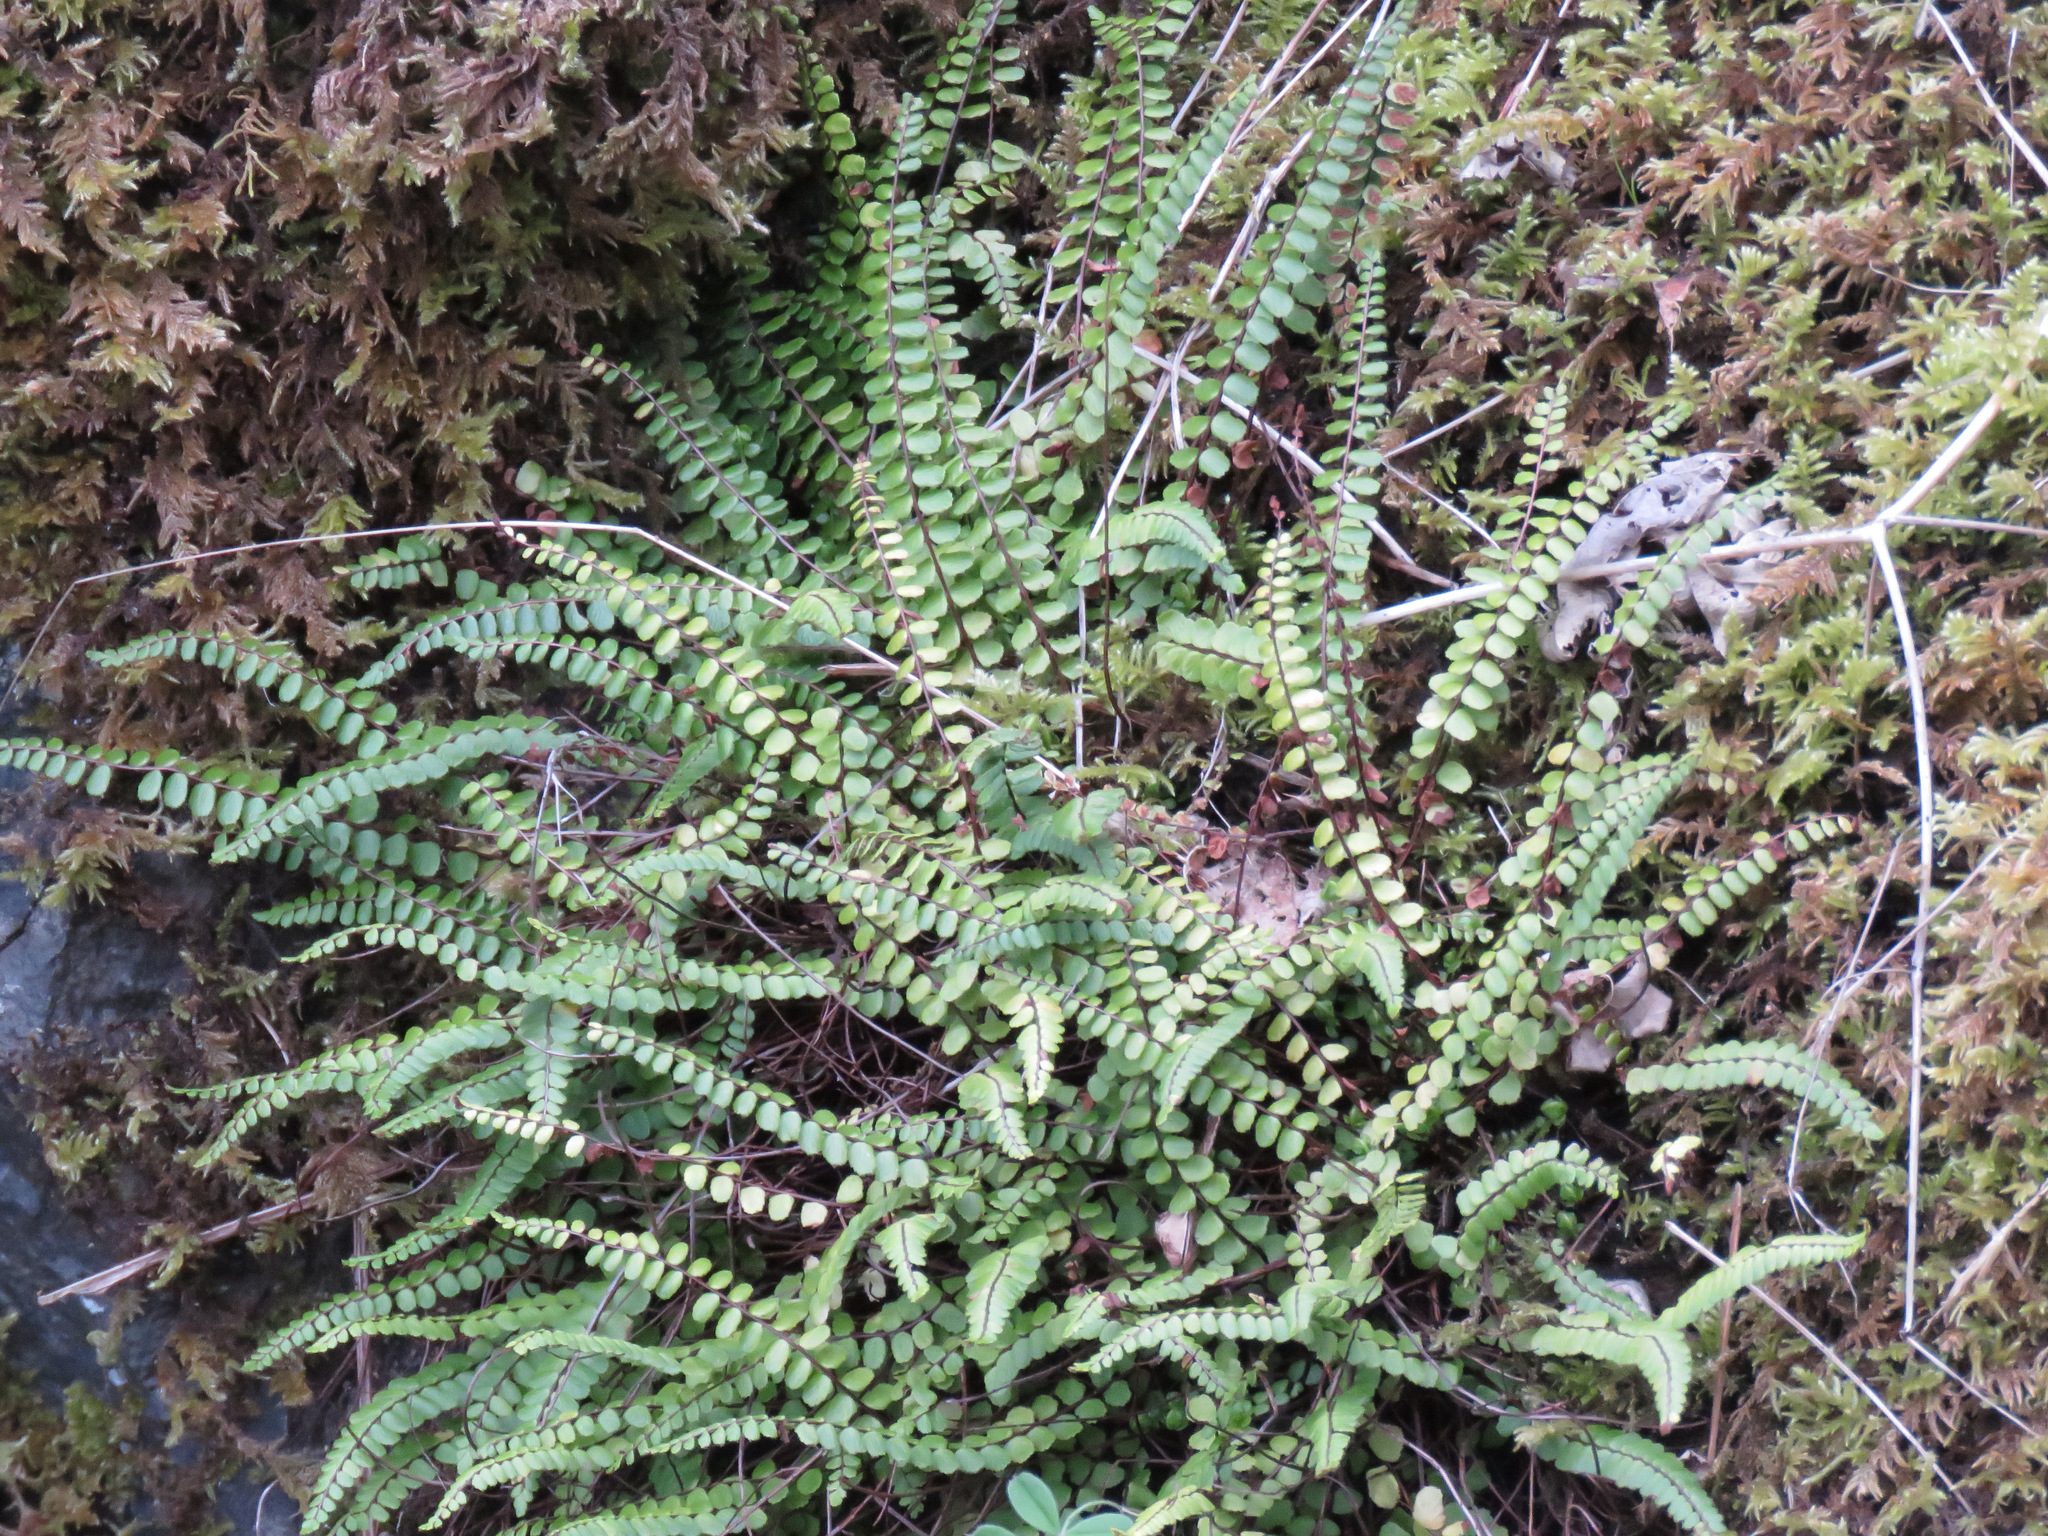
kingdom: Plantae
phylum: Tracheophyta
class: Polypodiopsida
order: Polypodiales
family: Aspleniaceae
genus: Asplenium
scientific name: Asplenium trichomanes
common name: Maidenhair spleenwort
